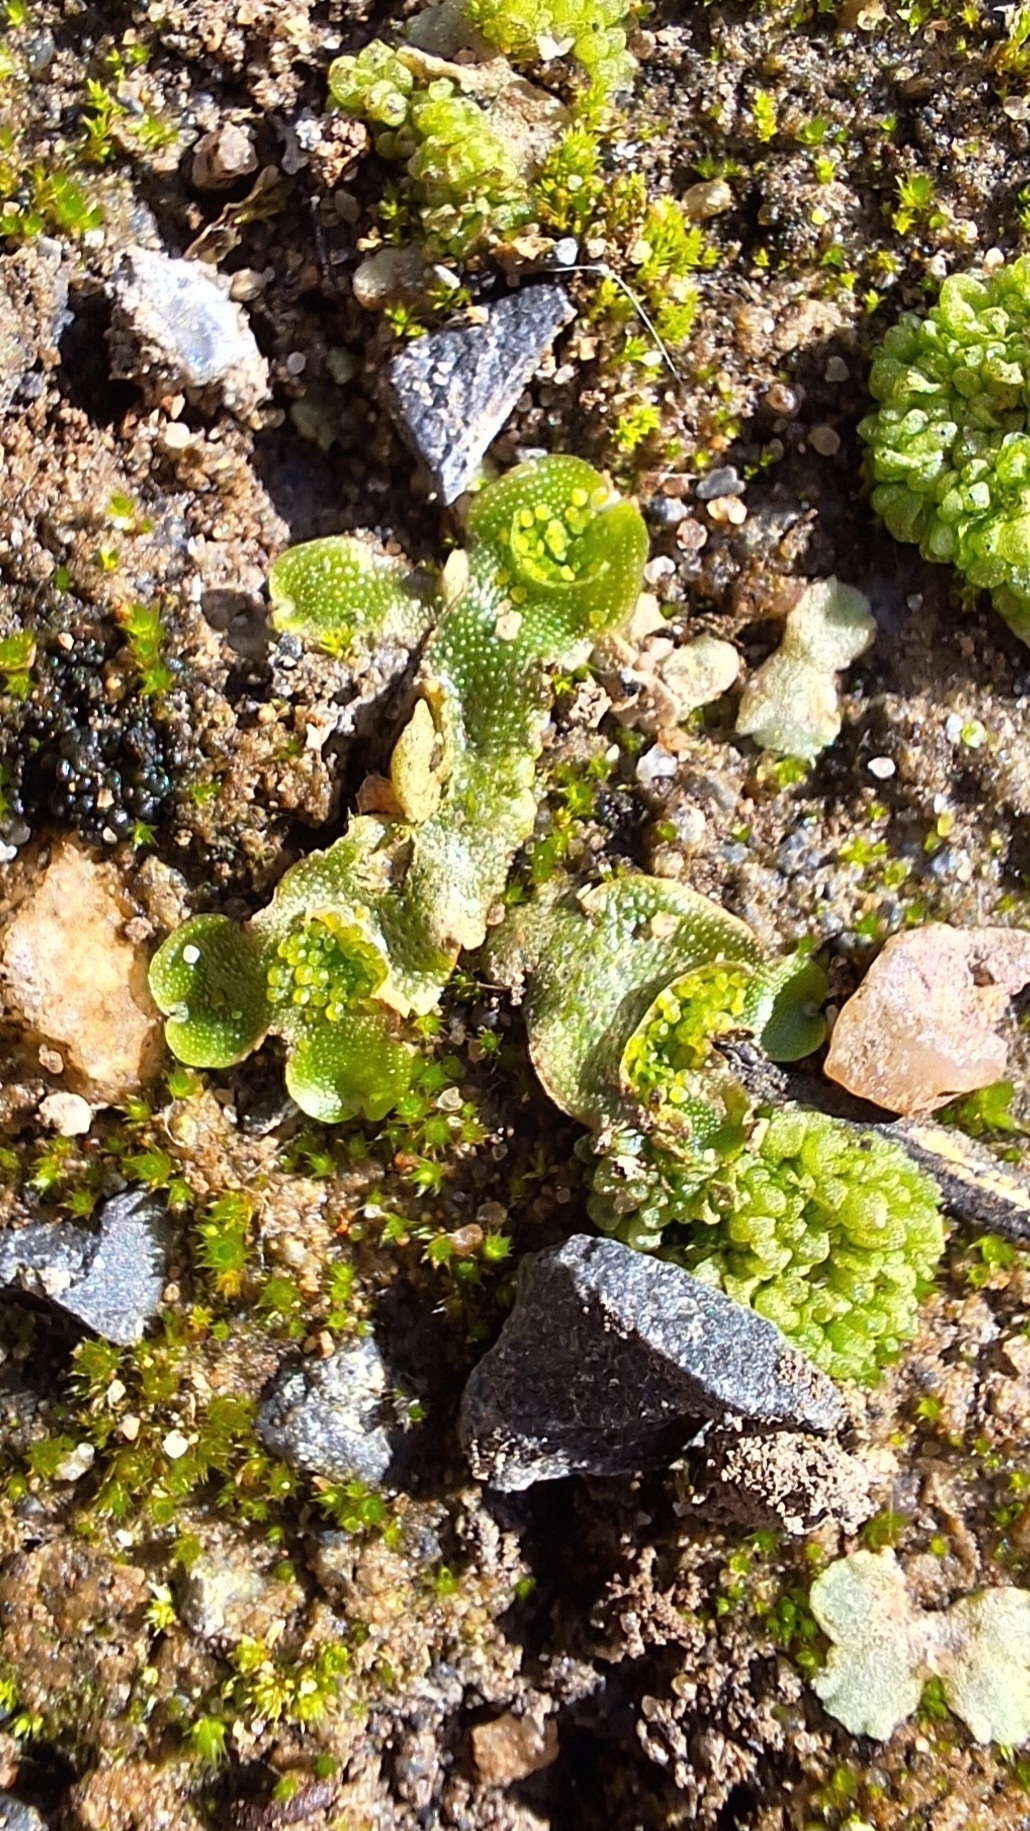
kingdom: Plantae
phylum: Marchantiophyta
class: Marchantiopsida
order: Lunulariales
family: Lunulariaceae
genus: Lunularia
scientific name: Lunularia cruciata
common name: Crescent-cup liverwort
